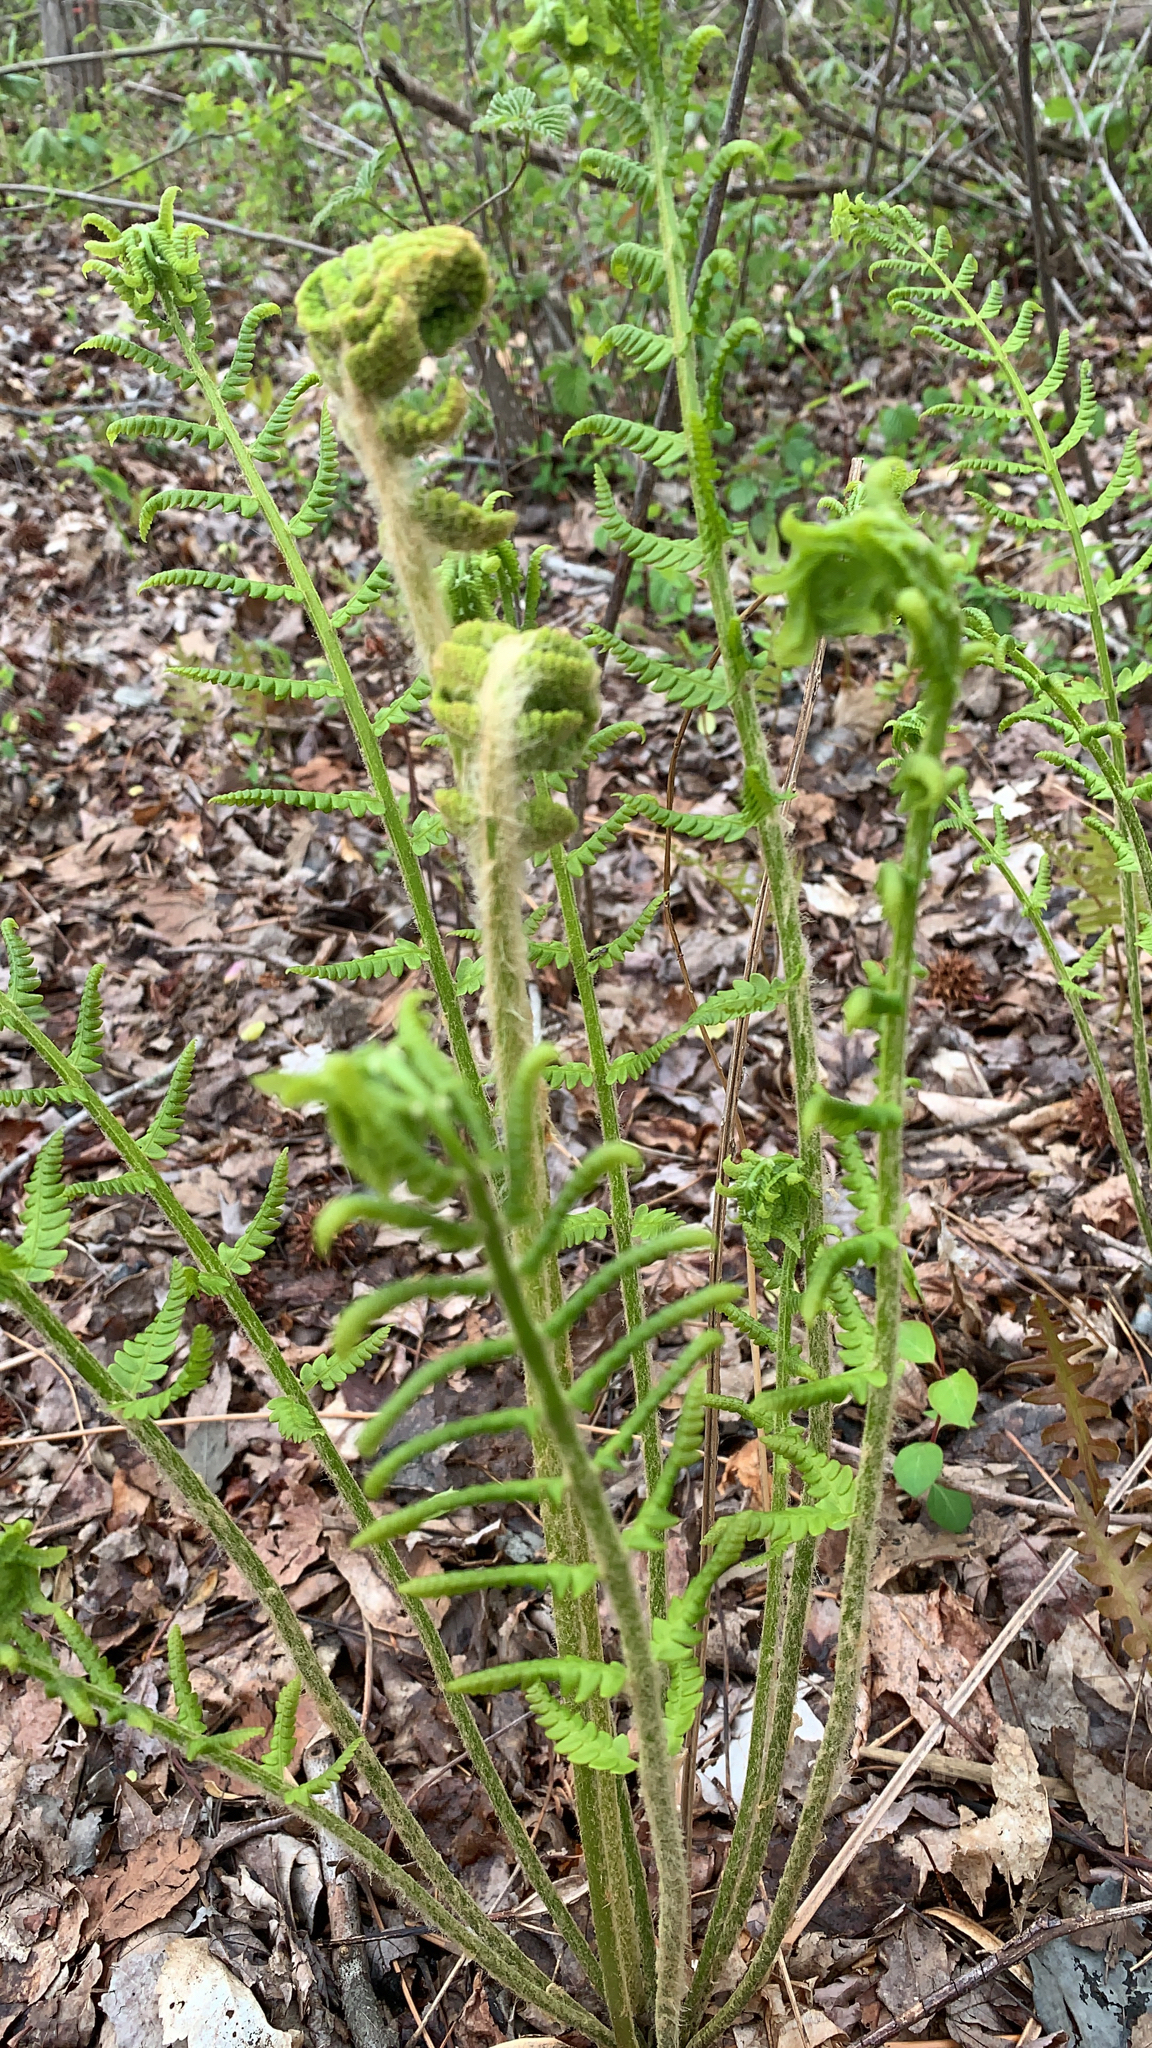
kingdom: Plantae
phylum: Tracheophyta
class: Polypodiopsida
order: Osmundales
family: Osmundaceae
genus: Osmundastrum
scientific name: Osmundastrum cinnamomeum
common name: Cinnamon fern
